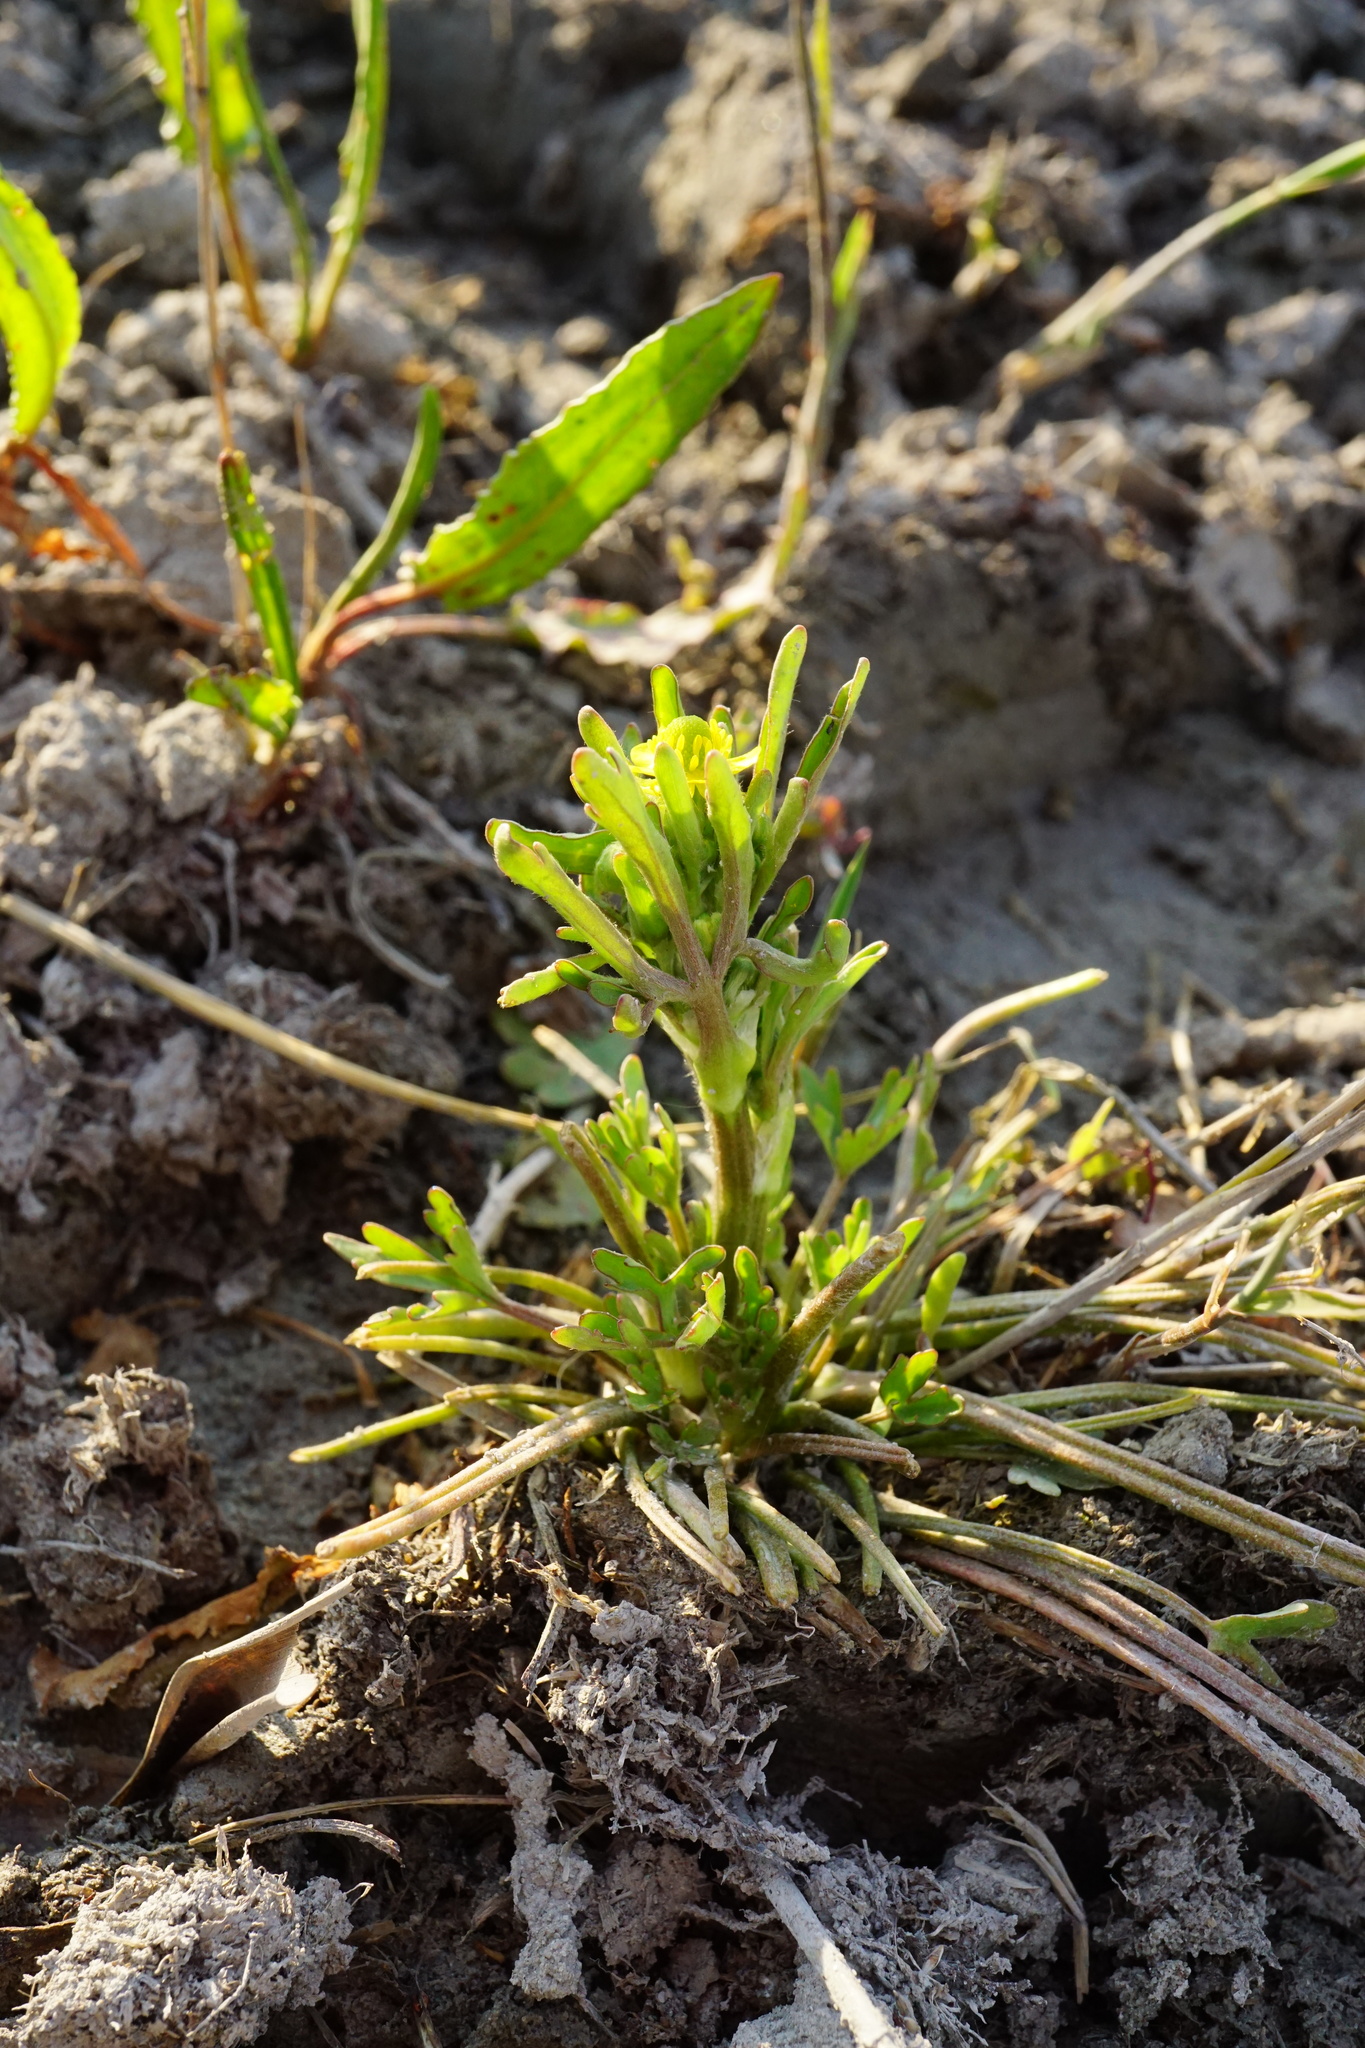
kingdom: Plantae
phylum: Tracheophyta
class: Magnoliopsida
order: Ranunculales
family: Ranunculaceae
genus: Ranunculus
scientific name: Ranunculus sceleratus
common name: Celery-leaved buttercup
